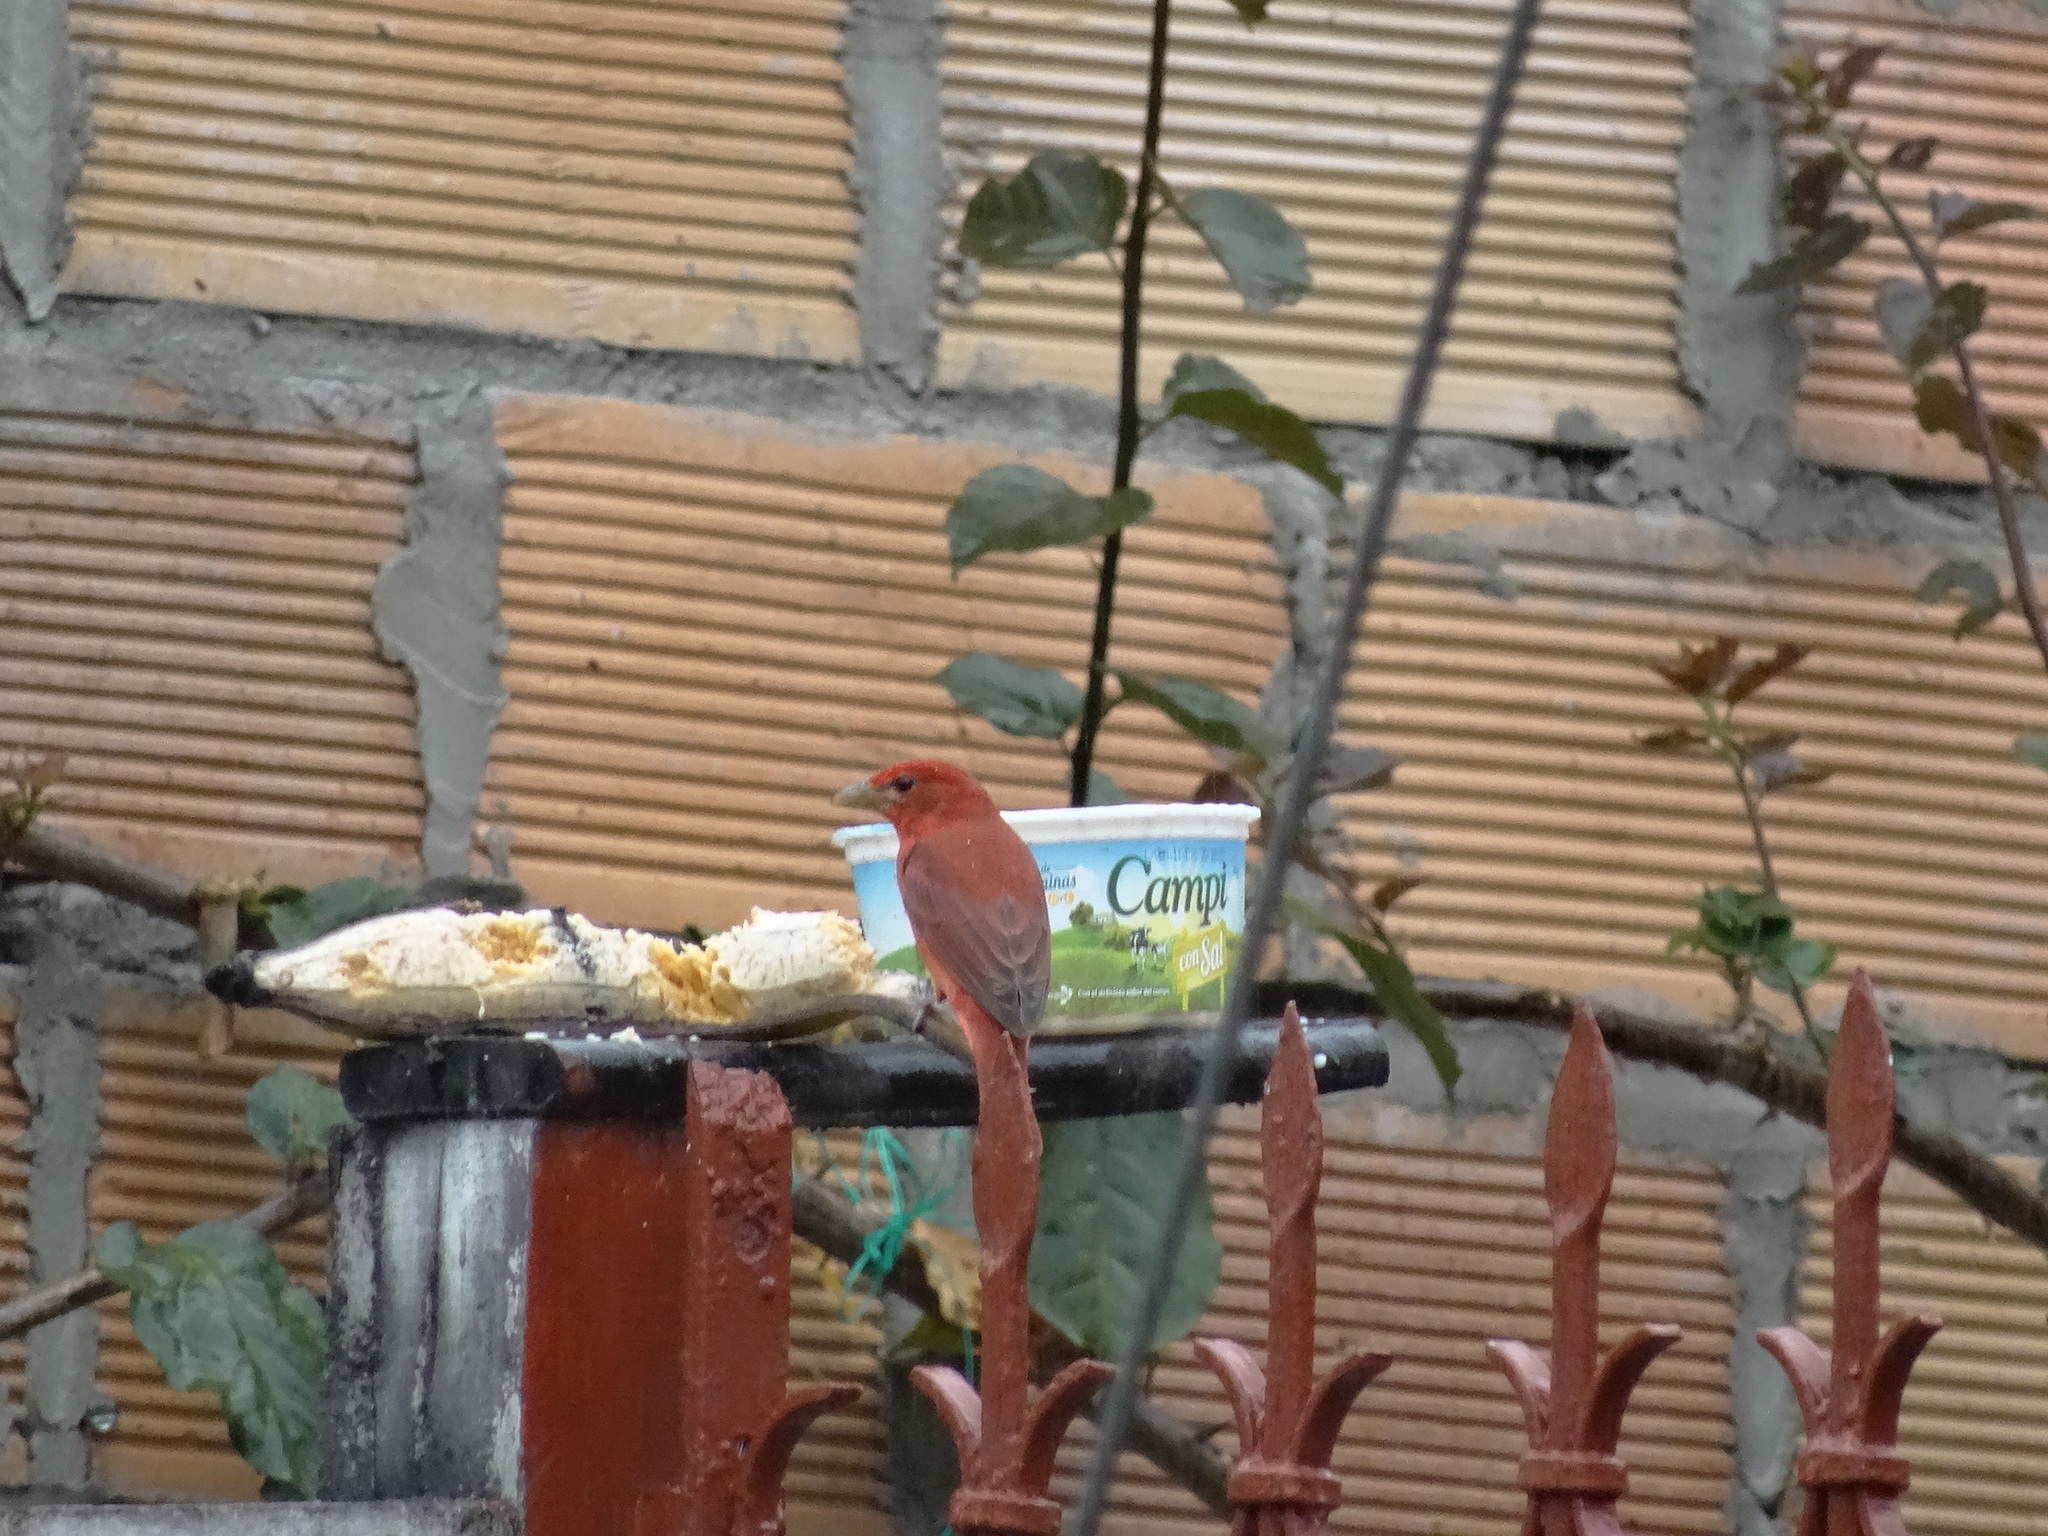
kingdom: Animalia
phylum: Chordata
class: Aves
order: Passeriformes
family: Cardinalidae
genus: Piranga
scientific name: Piranga rubra
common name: Summer tanager
